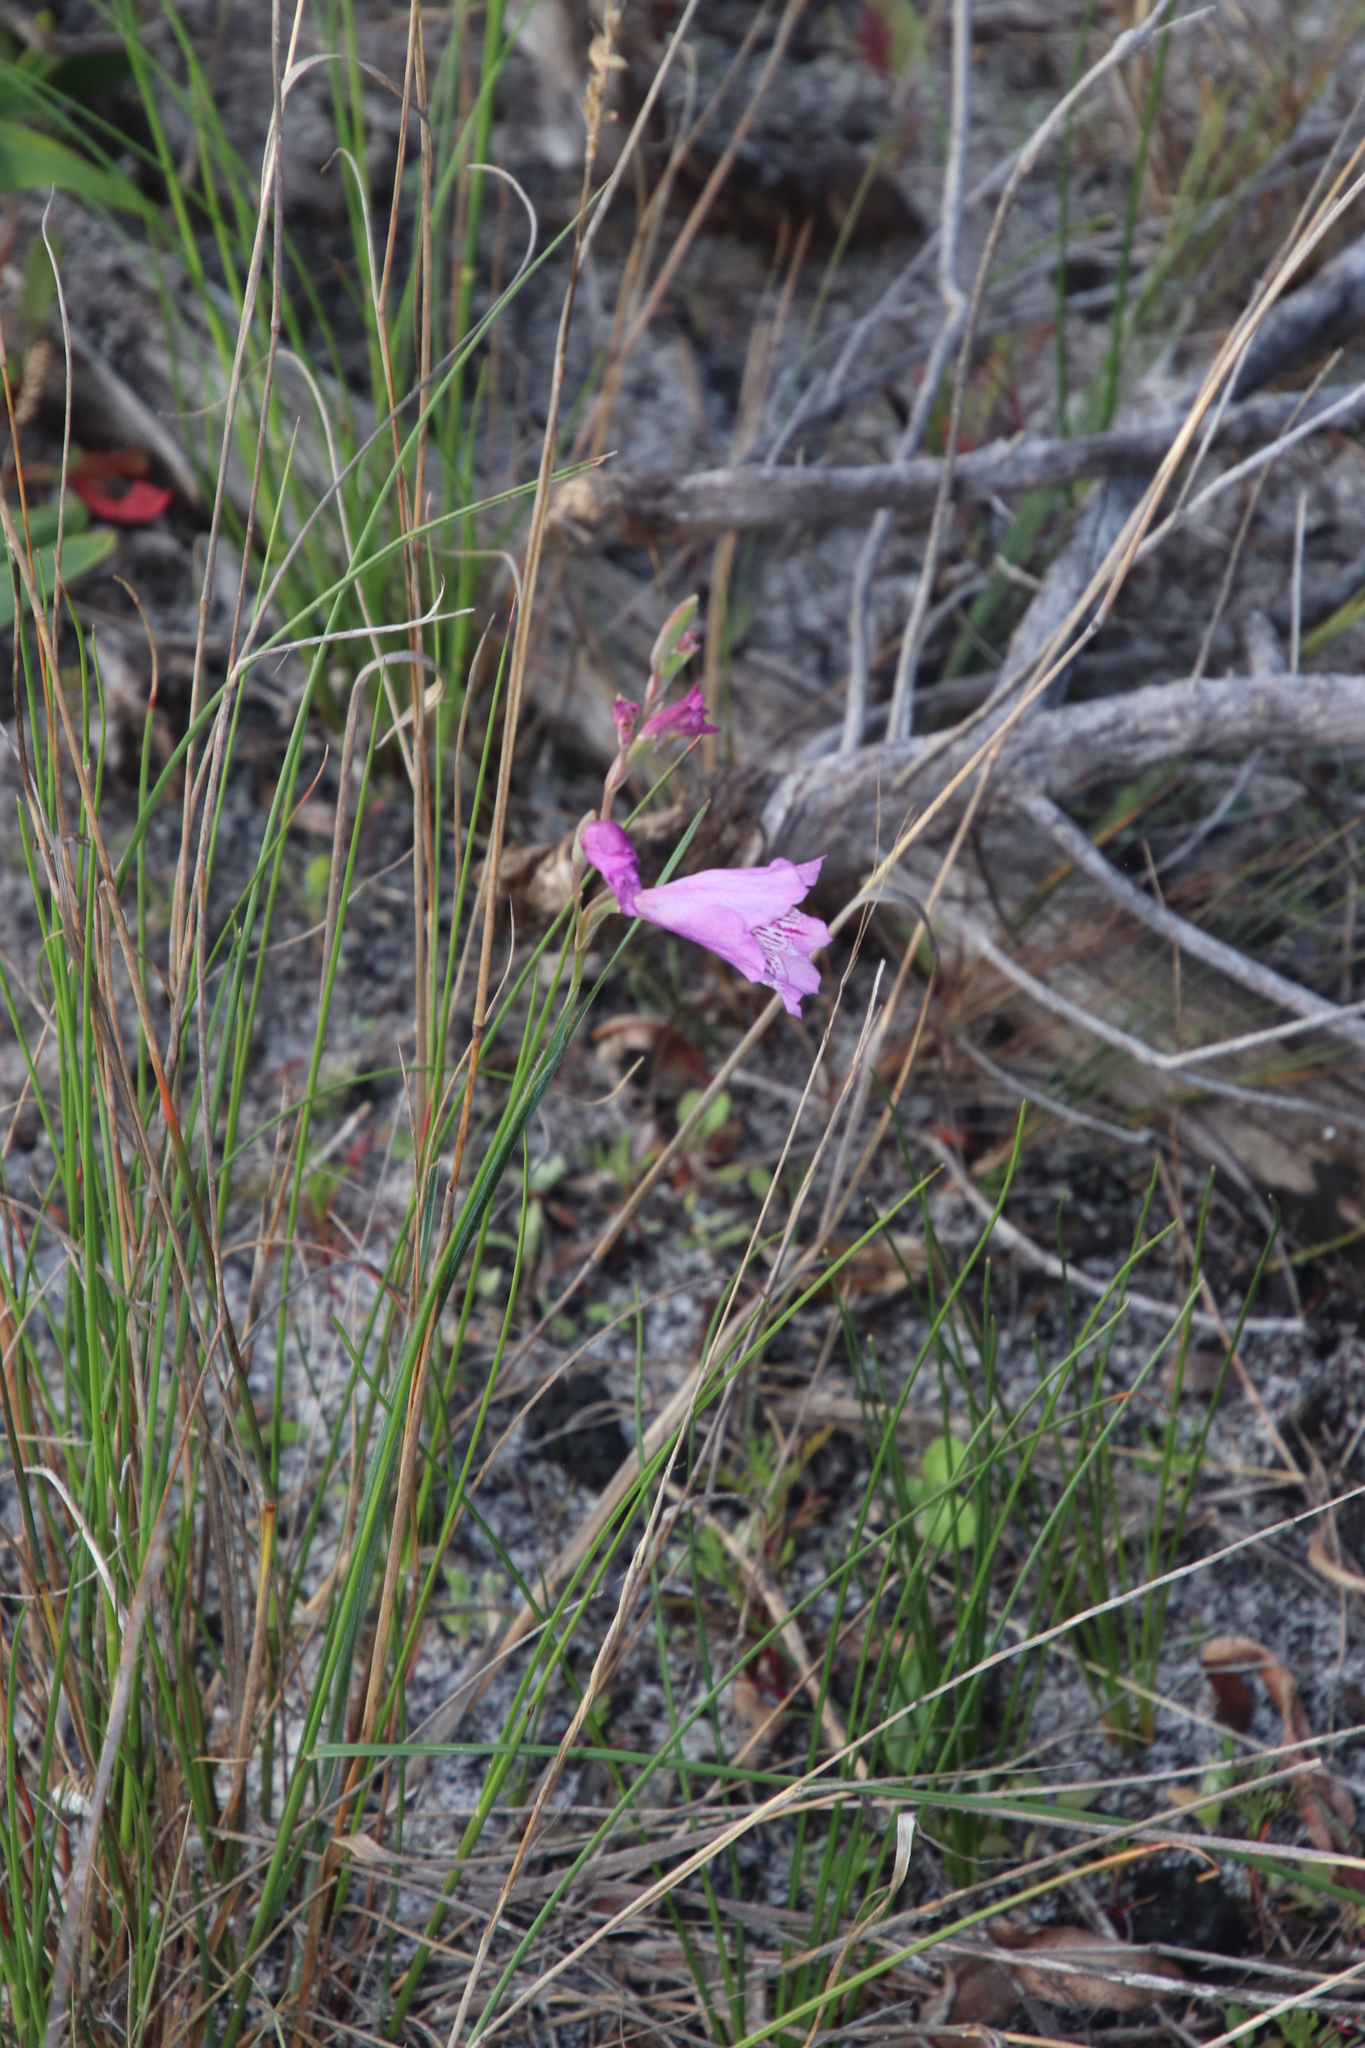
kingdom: Plantae
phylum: Tracheophyta
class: Liliopsida
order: Asparagales
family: Iridaceae
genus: Gladiolus
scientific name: Gladiolus hirsutus
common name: Small pink afrikaner
